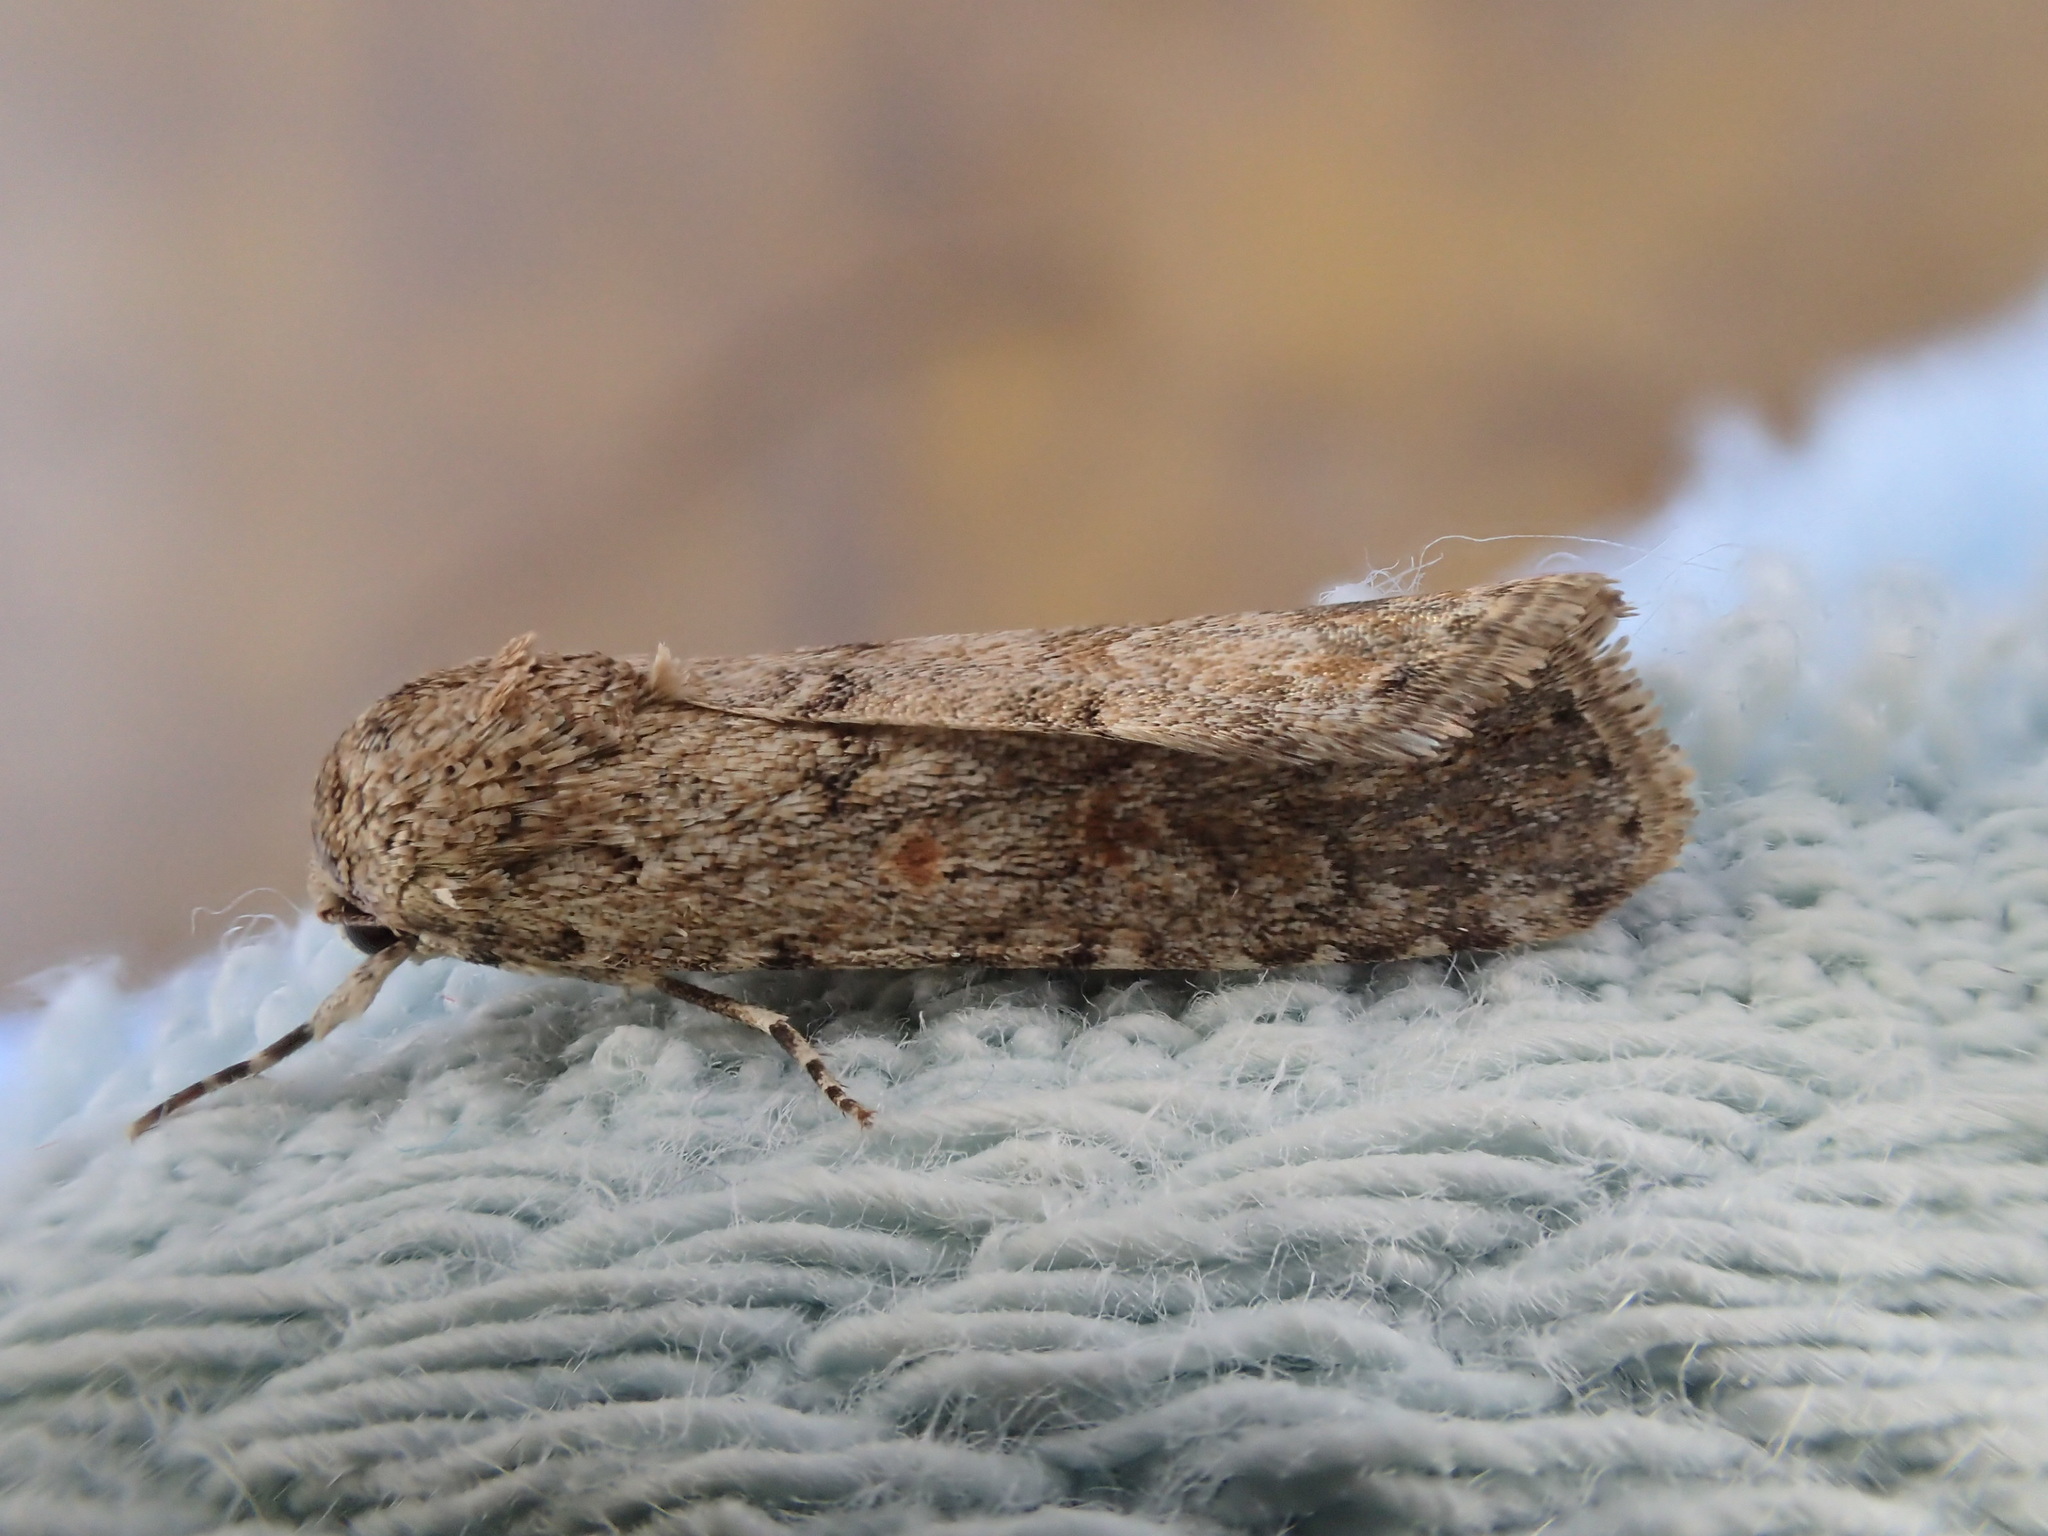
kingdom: Animalia
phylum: Arthropoda
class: Insecta
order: Lepidoptera
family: Noctuidae
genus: Spodoptera
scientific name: Spodoptera exigua
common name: Beet armyworm
